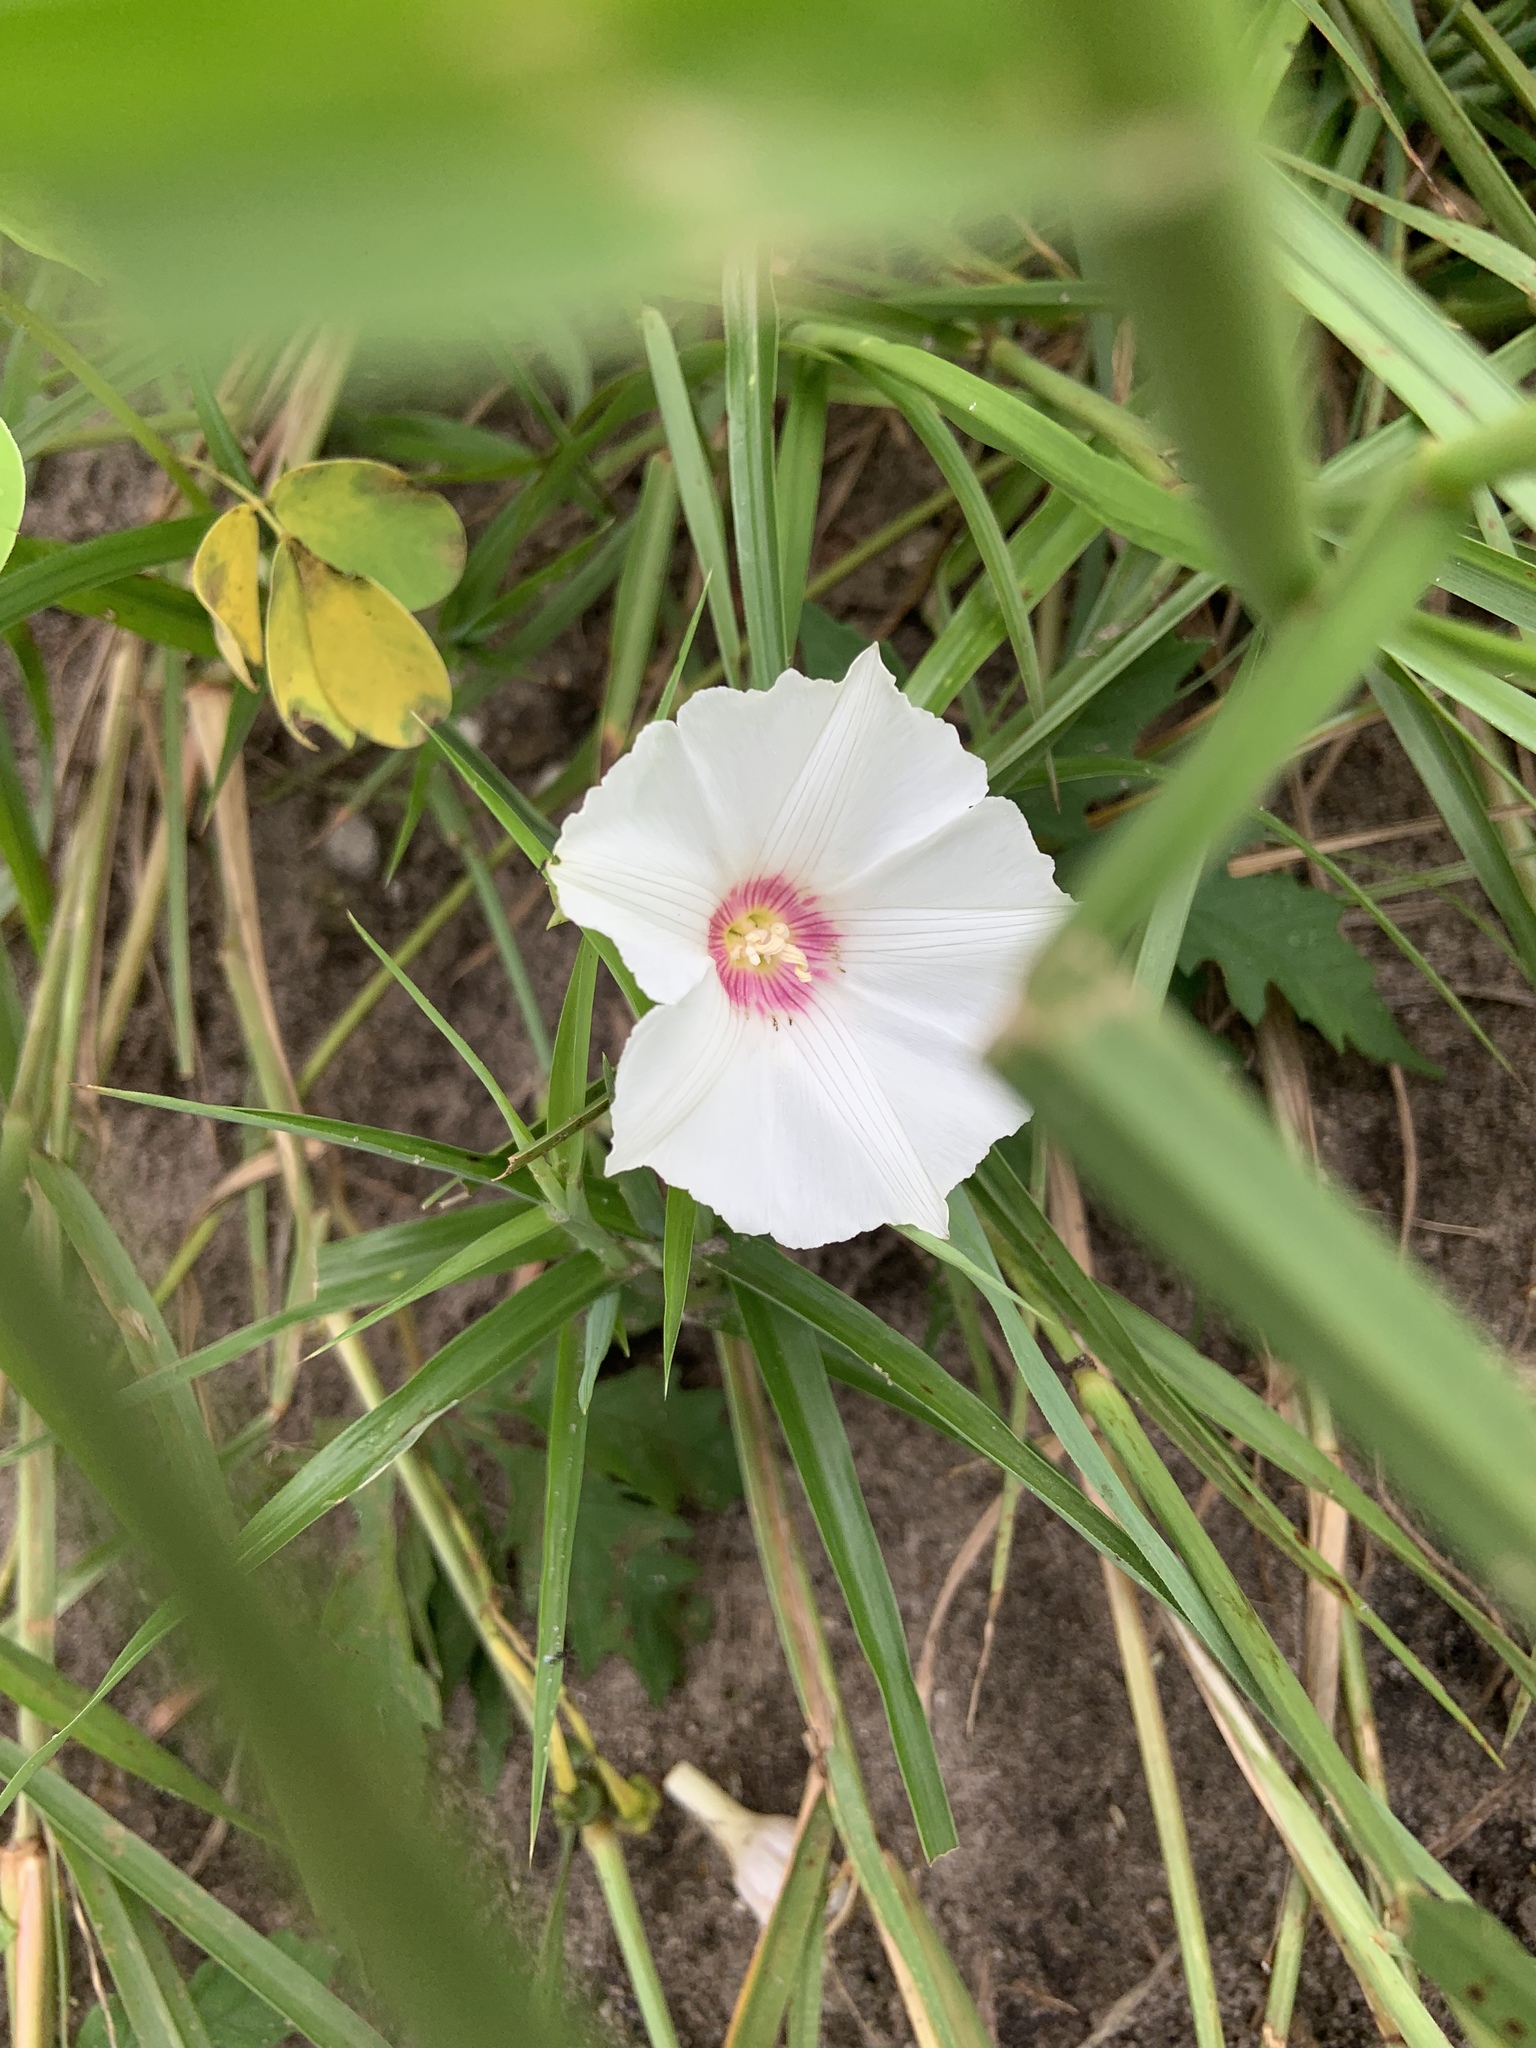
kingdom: Plantae
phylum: Tracheophyta
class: Magnoliopsida
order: Solanales
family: Convolvulaceae
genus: Distimake
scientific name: Distimake dissectus
